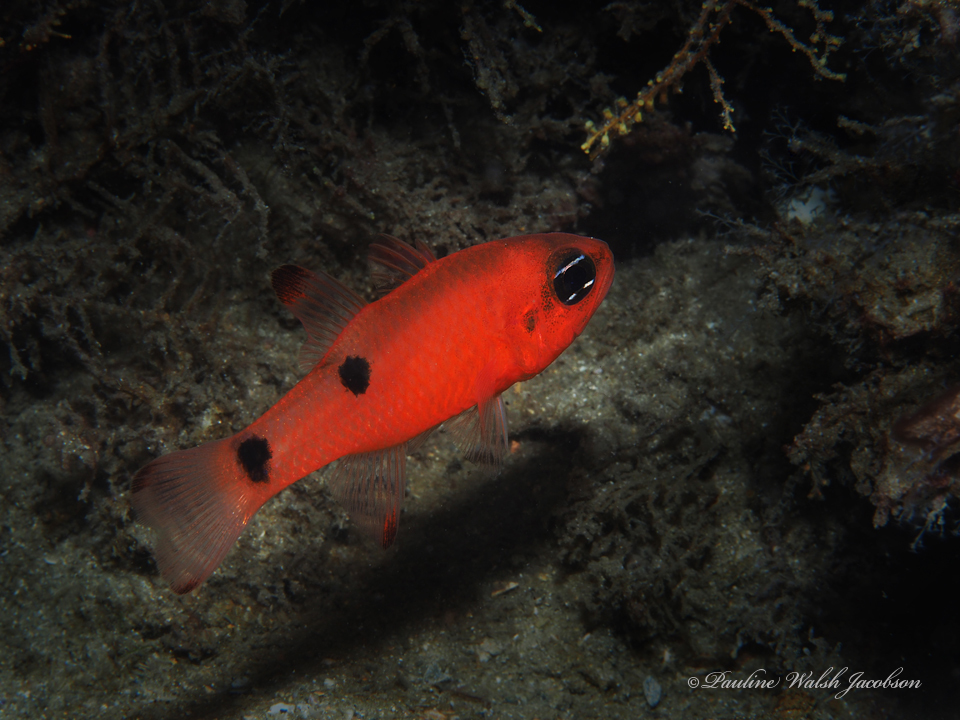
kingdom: Animalia
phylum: Chordata
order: Perciformes
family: Apogonidae
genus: Apogon
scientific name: Apogon pseudomaculatus
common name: Twospot cardinalfish
